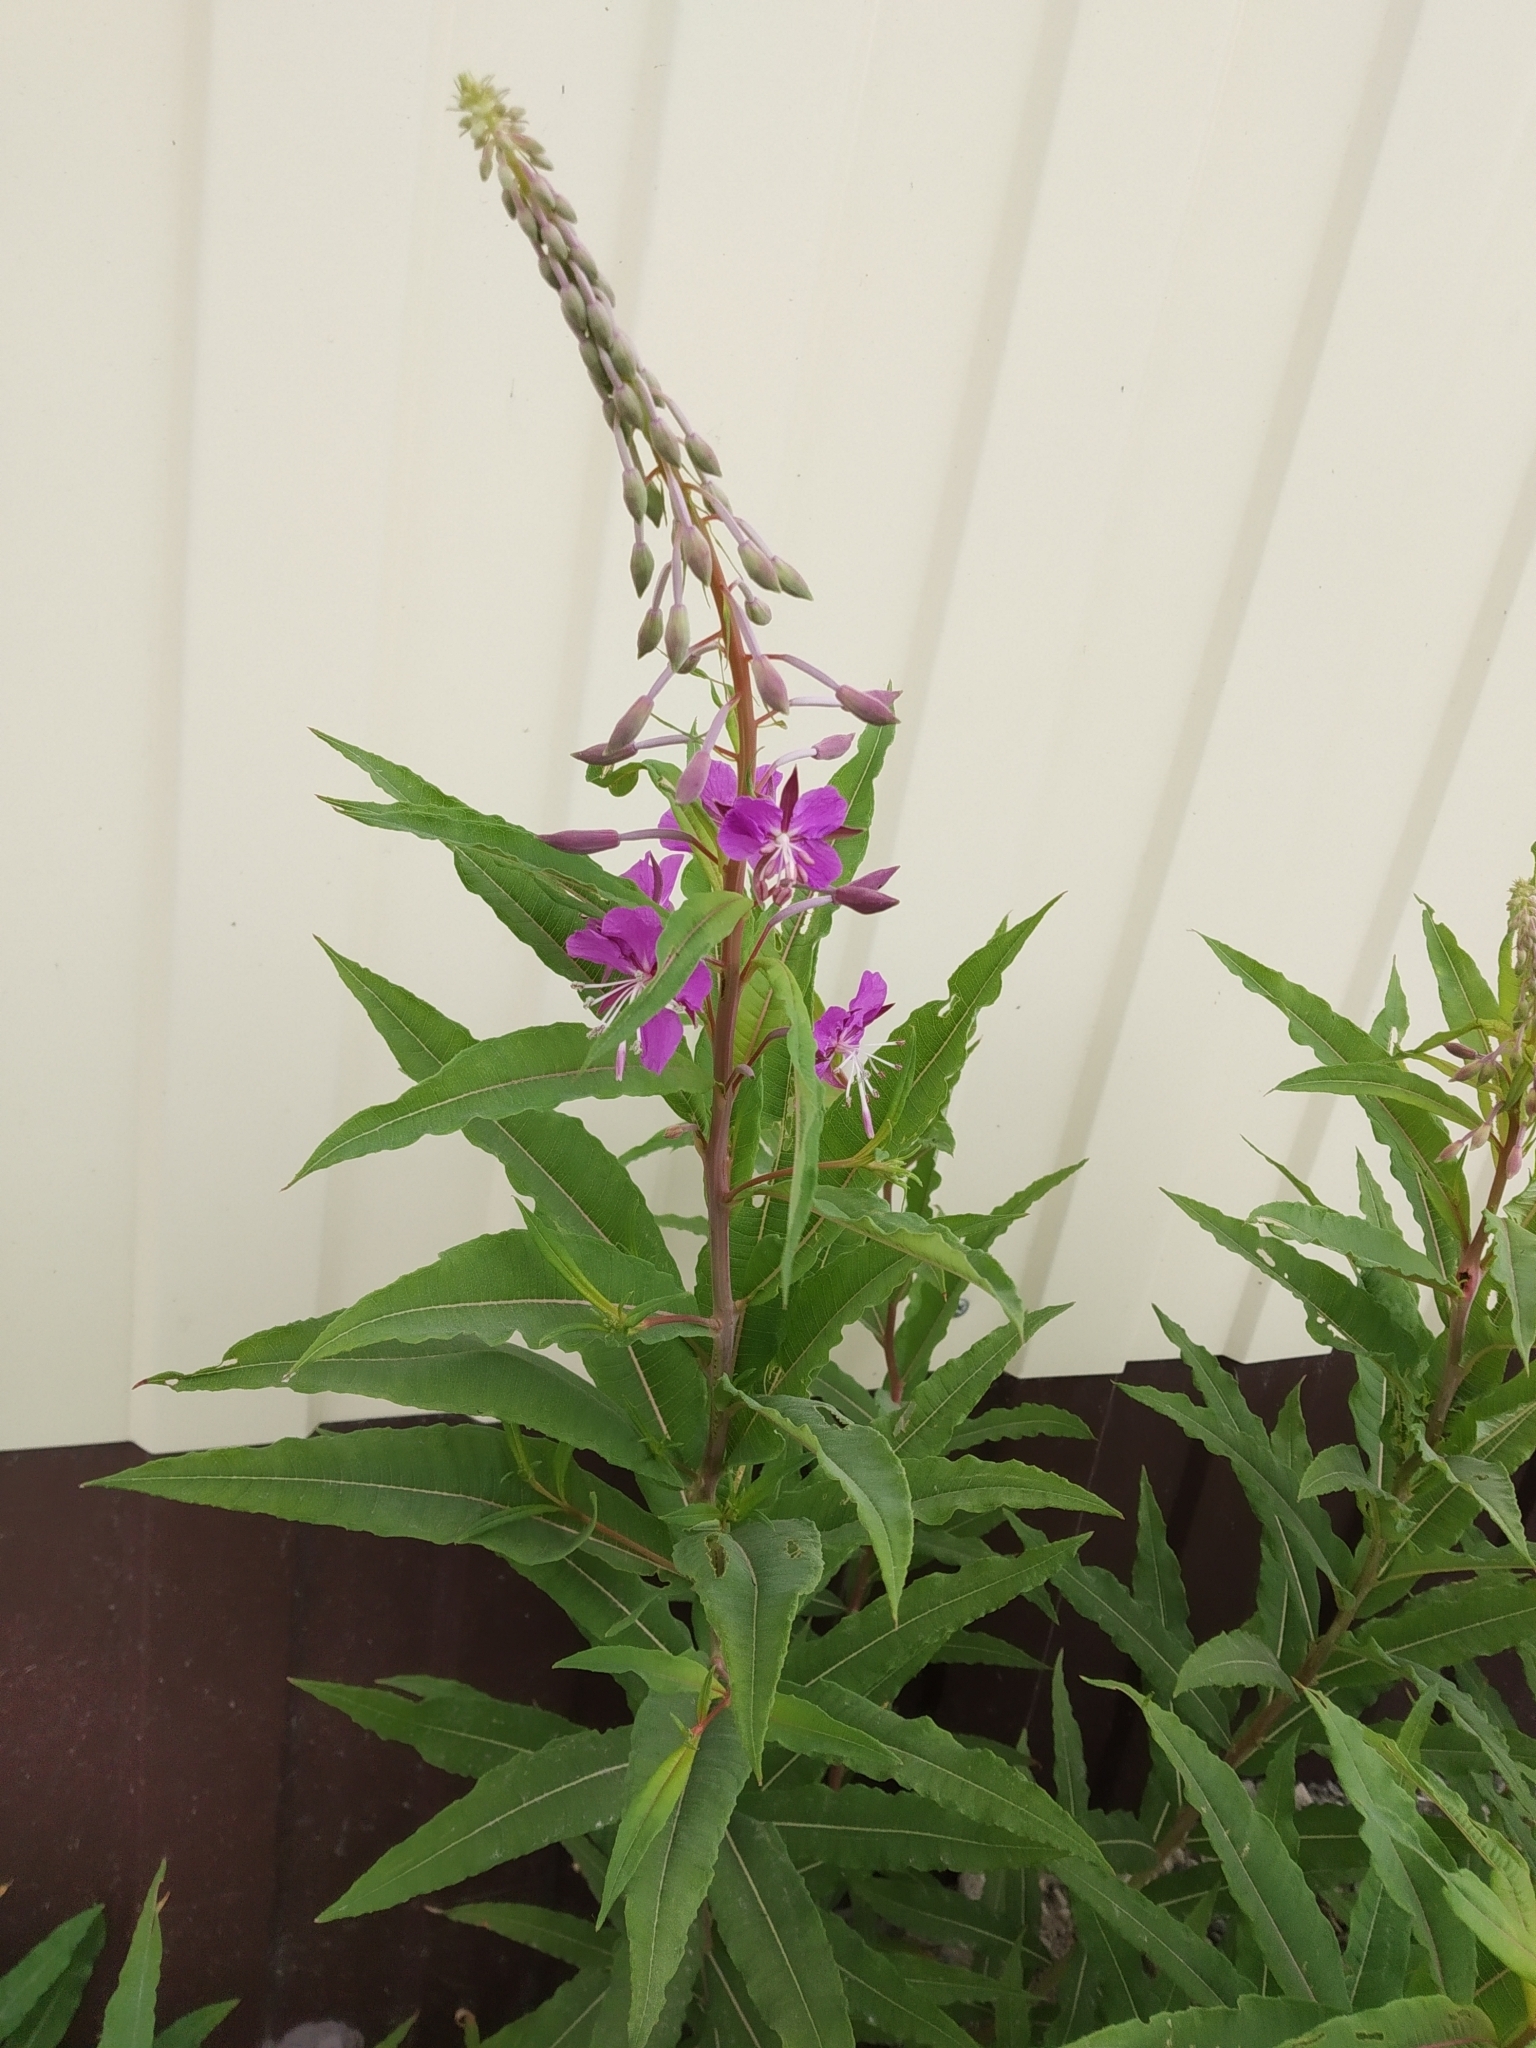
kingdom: Plantae
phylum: Tracheophyta
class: Magnoliopsida
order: Myrtales
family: Onagraceae
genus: Chamaenerion
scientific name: Chamaenerion angustifolium
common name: Fireweed
